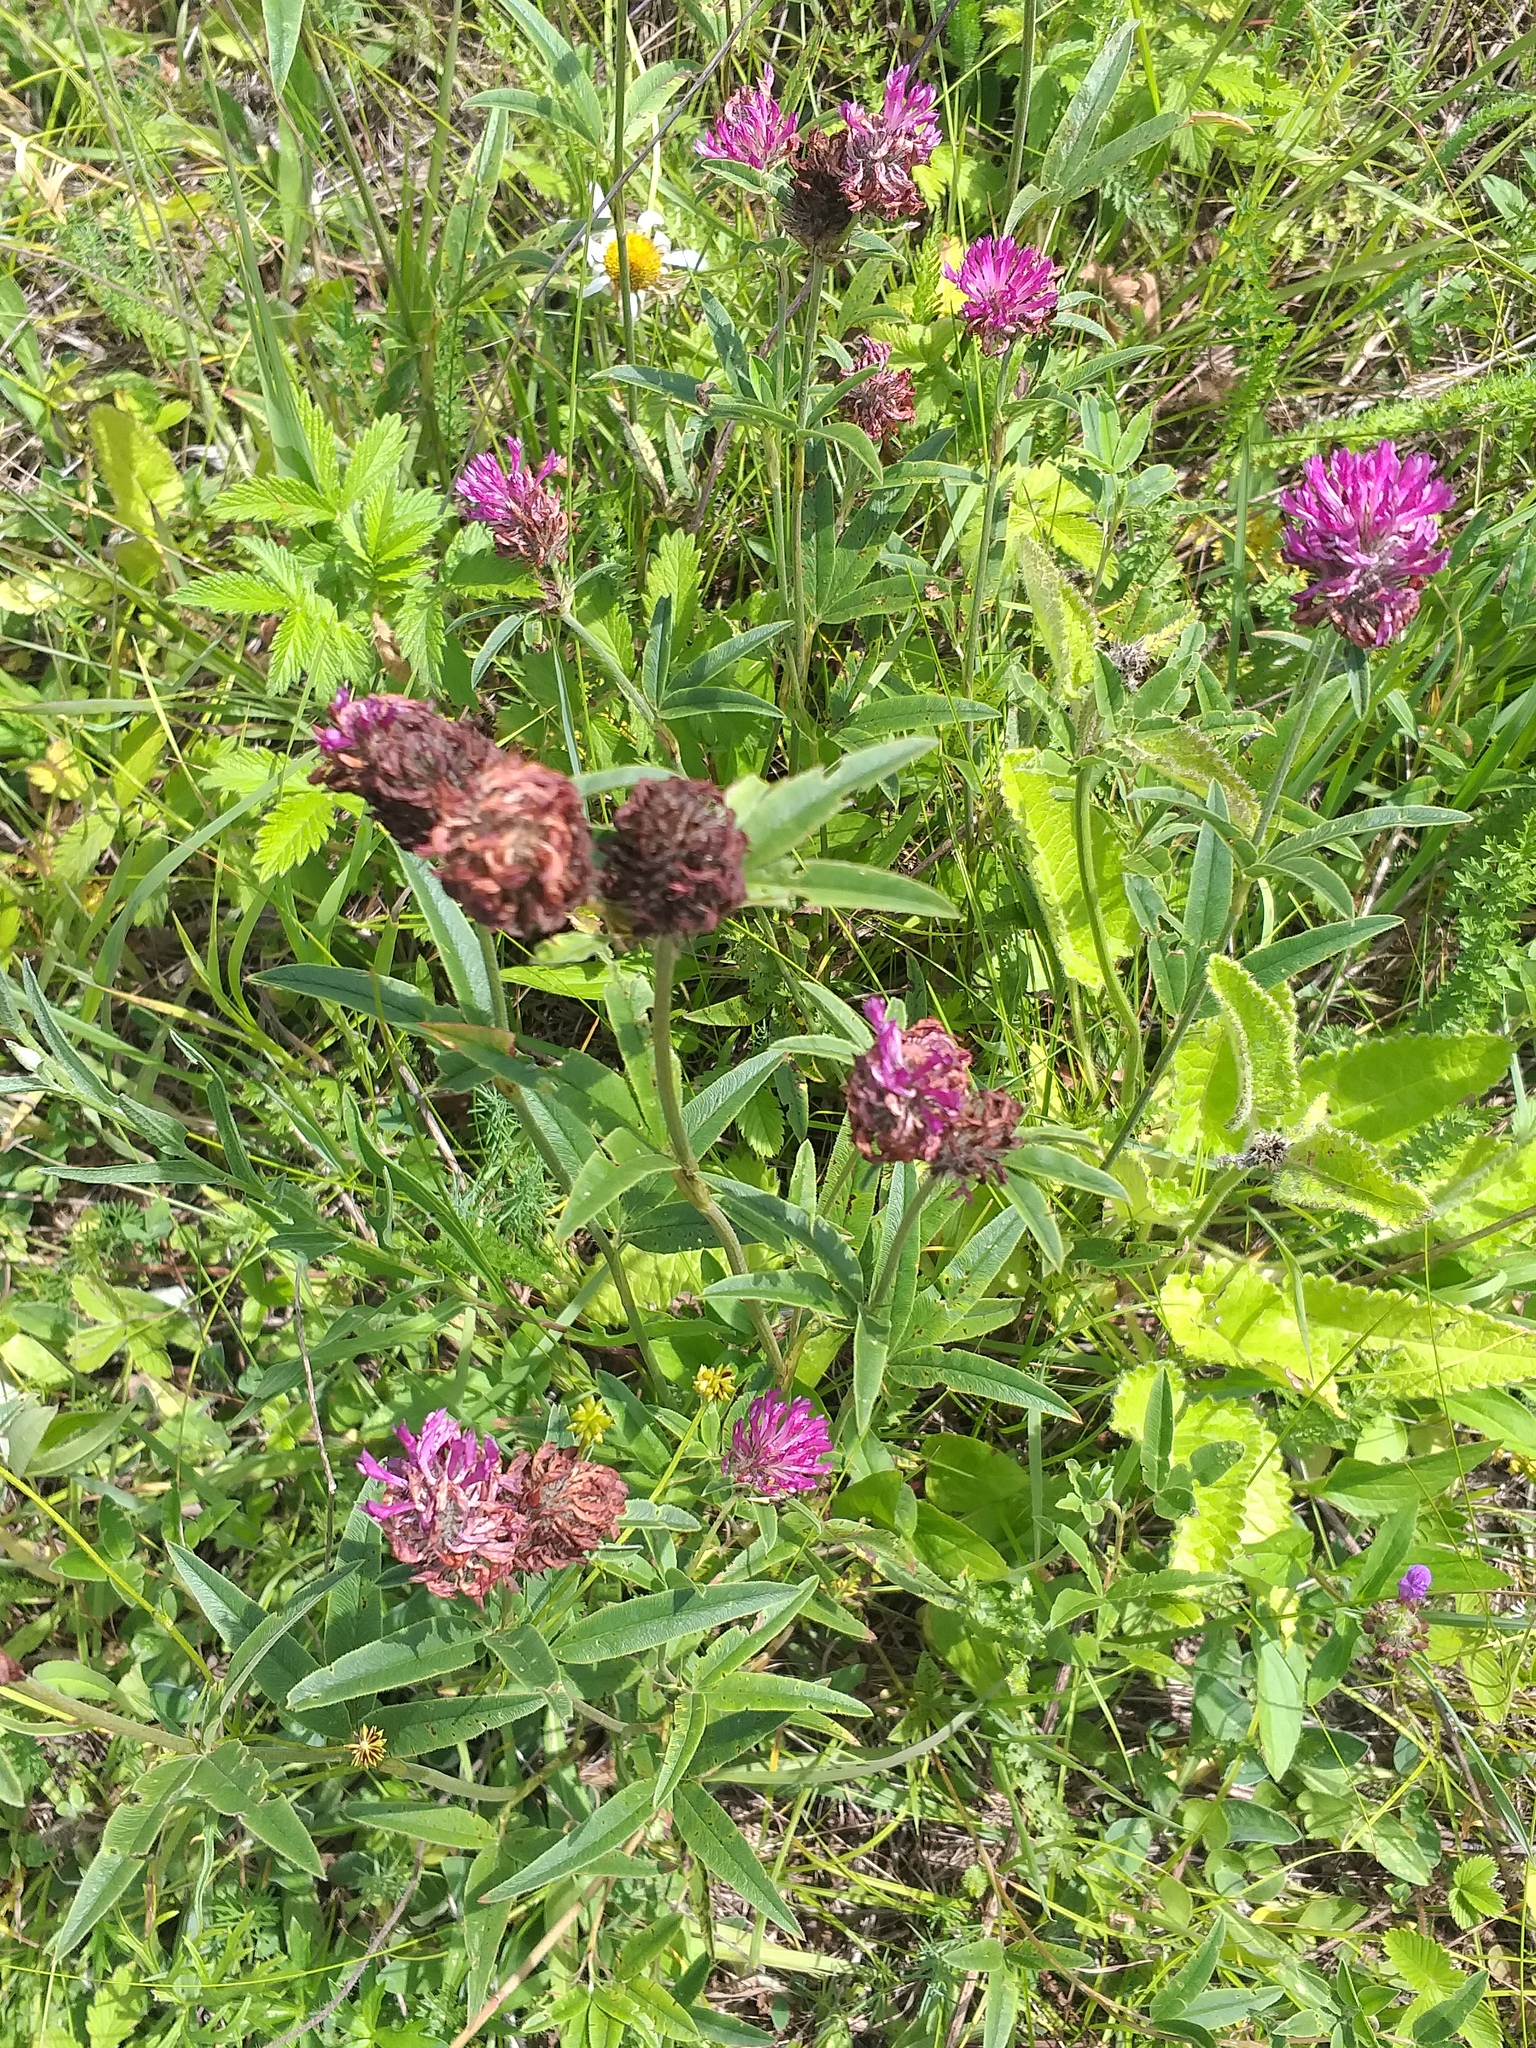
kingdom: Plantae
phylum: Tracheophyta
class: Magnoliopsida
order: Fabales
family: Fabaceae
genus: Trifolium
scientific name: Trifolium alpestre
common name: Owl-head clover
